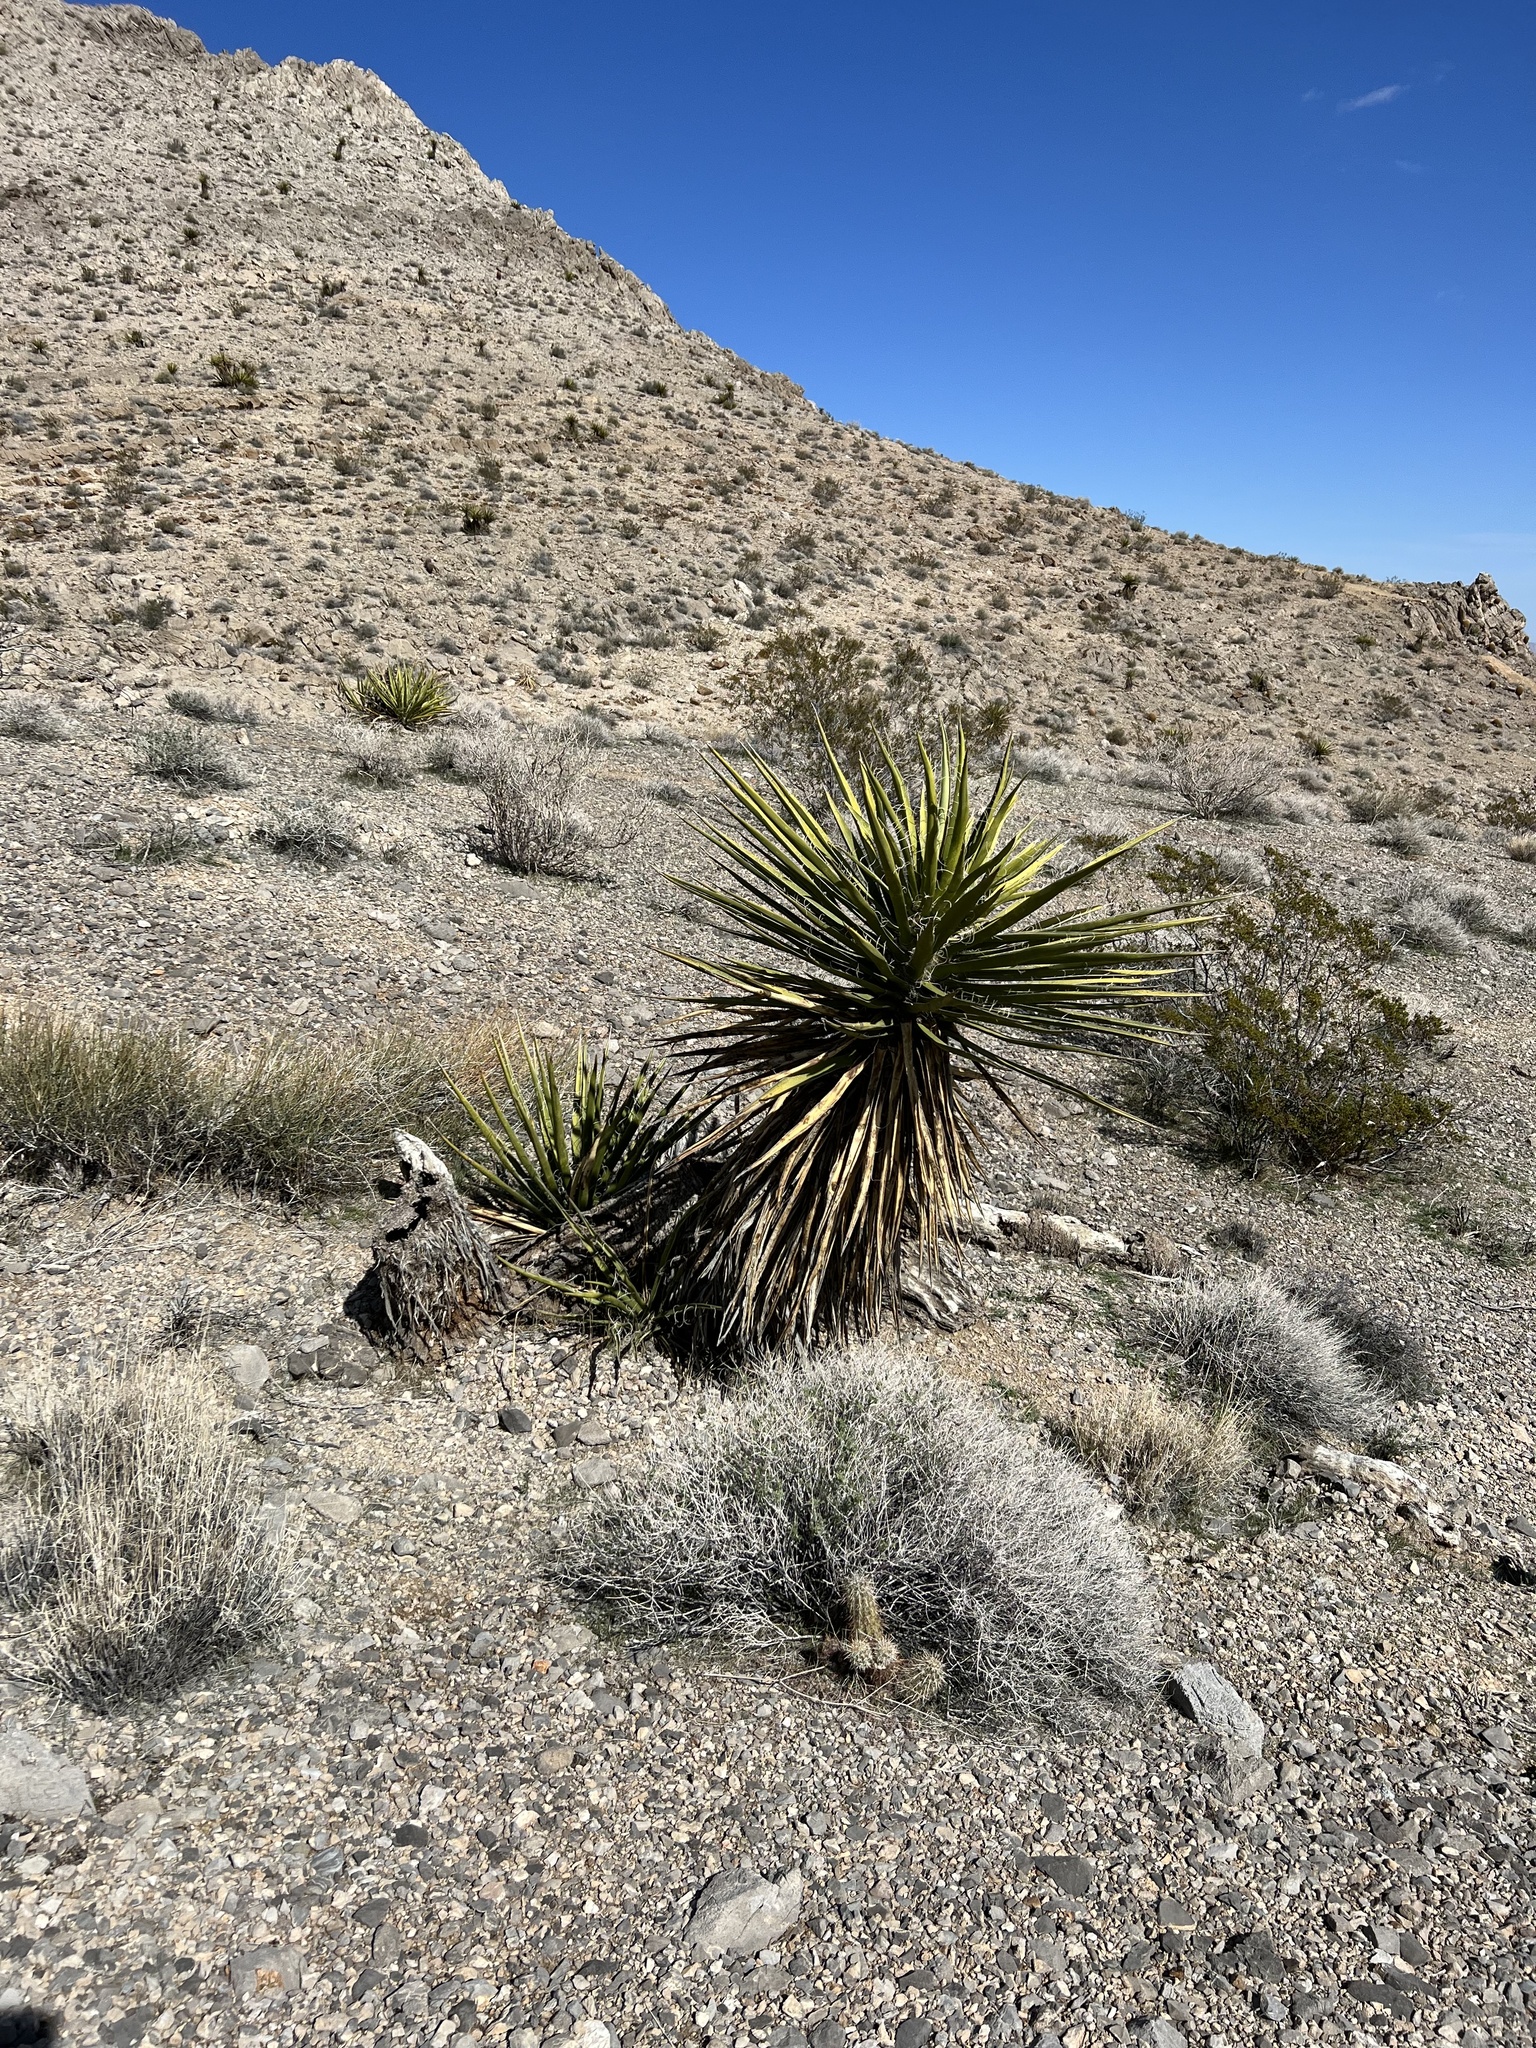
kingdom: Plantae
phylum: Tracheophyta
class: Liliopsida
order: Asparagales
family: Asparagaceae
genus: Yucca
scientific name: Yucca schidigera
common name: Mojave yucca
